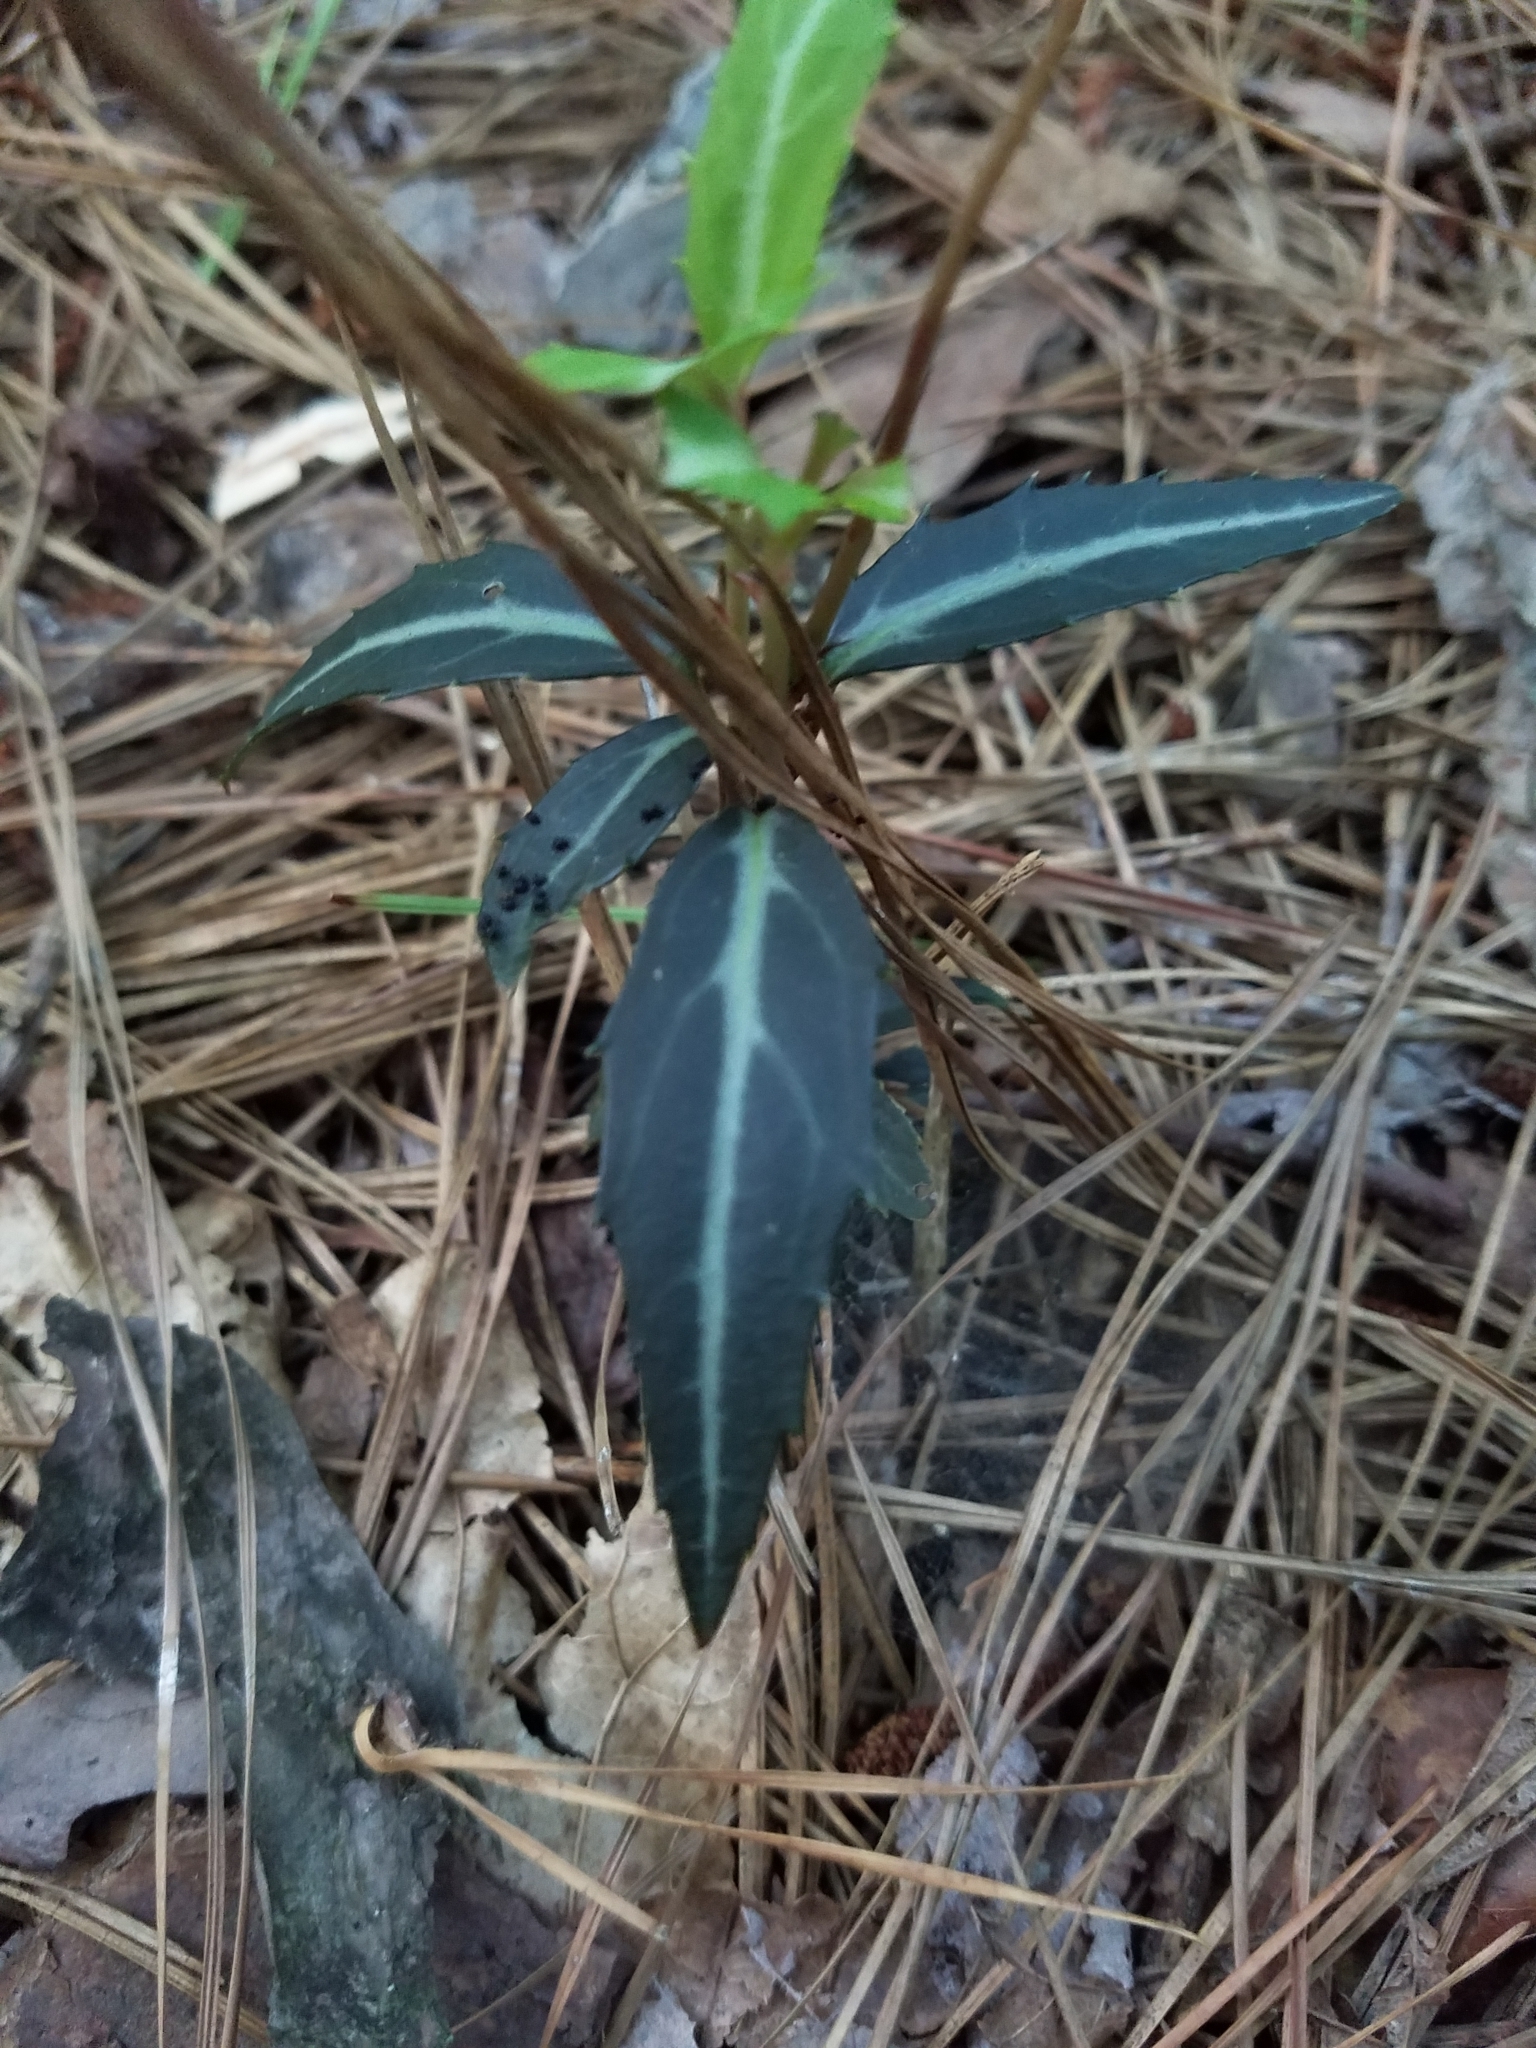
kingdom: Plantae
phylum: Tracheophyta
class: Magnoliopsida
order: Ericales
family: Ericaceae
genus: Chimaphila
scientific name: Chimaphila maculata
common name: Spotted pipsissewa
